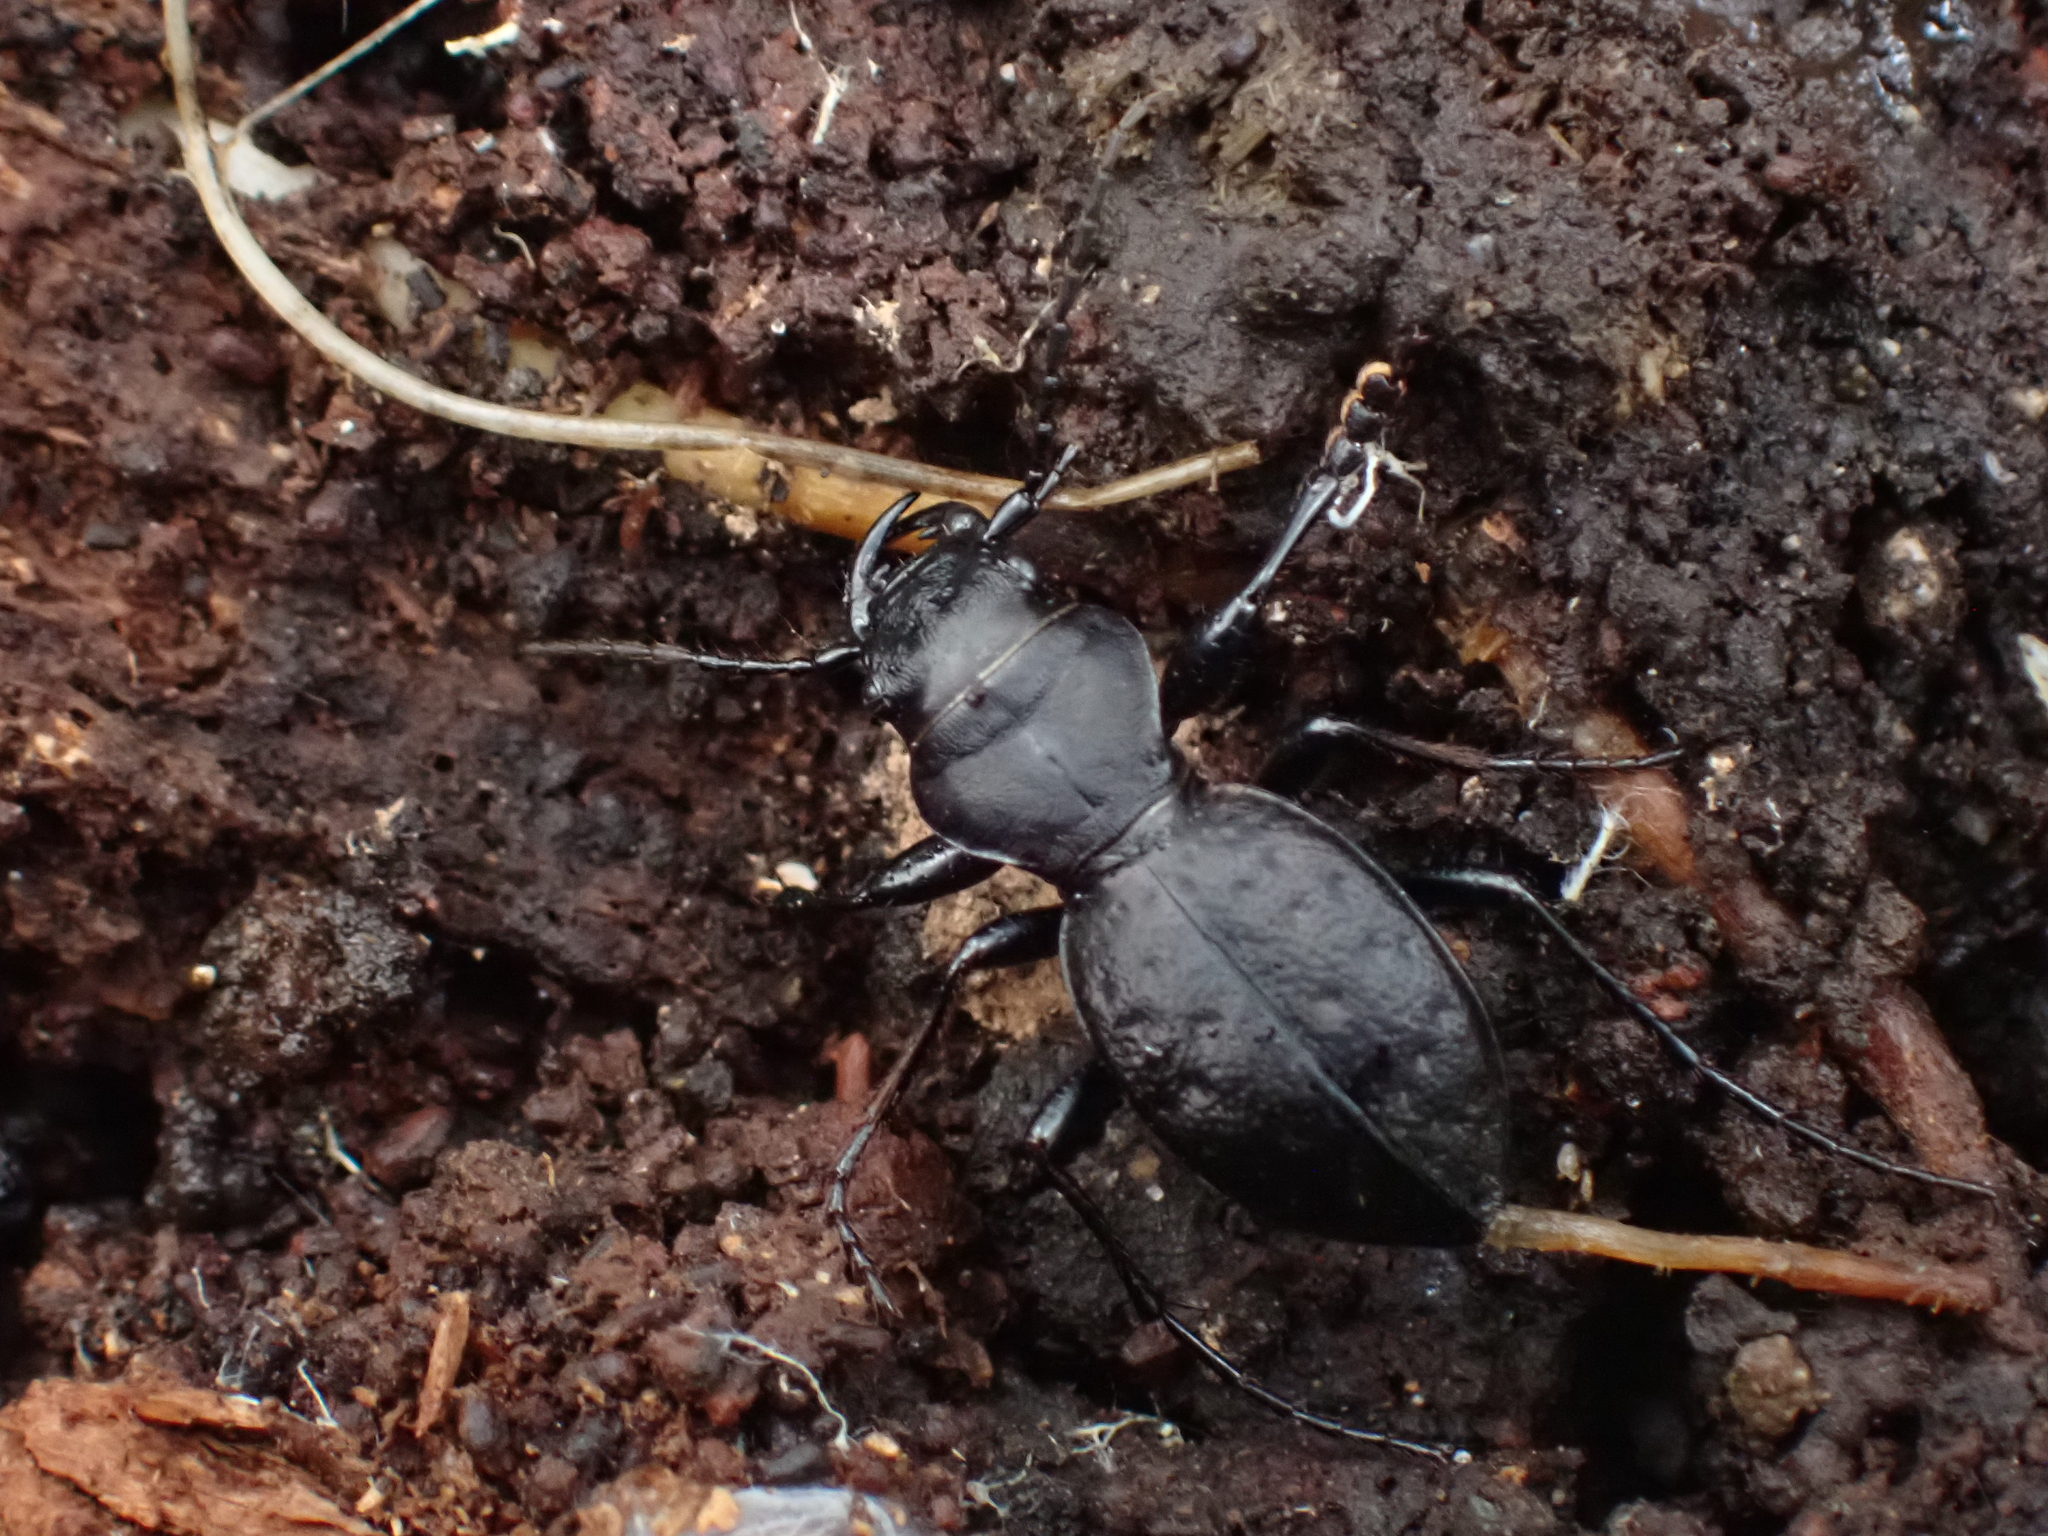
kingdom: Animalia
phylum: Arthropoda
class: Insecta
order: Coleoptera
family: Carabidae
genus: Omus
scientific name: Omus dejeanii
